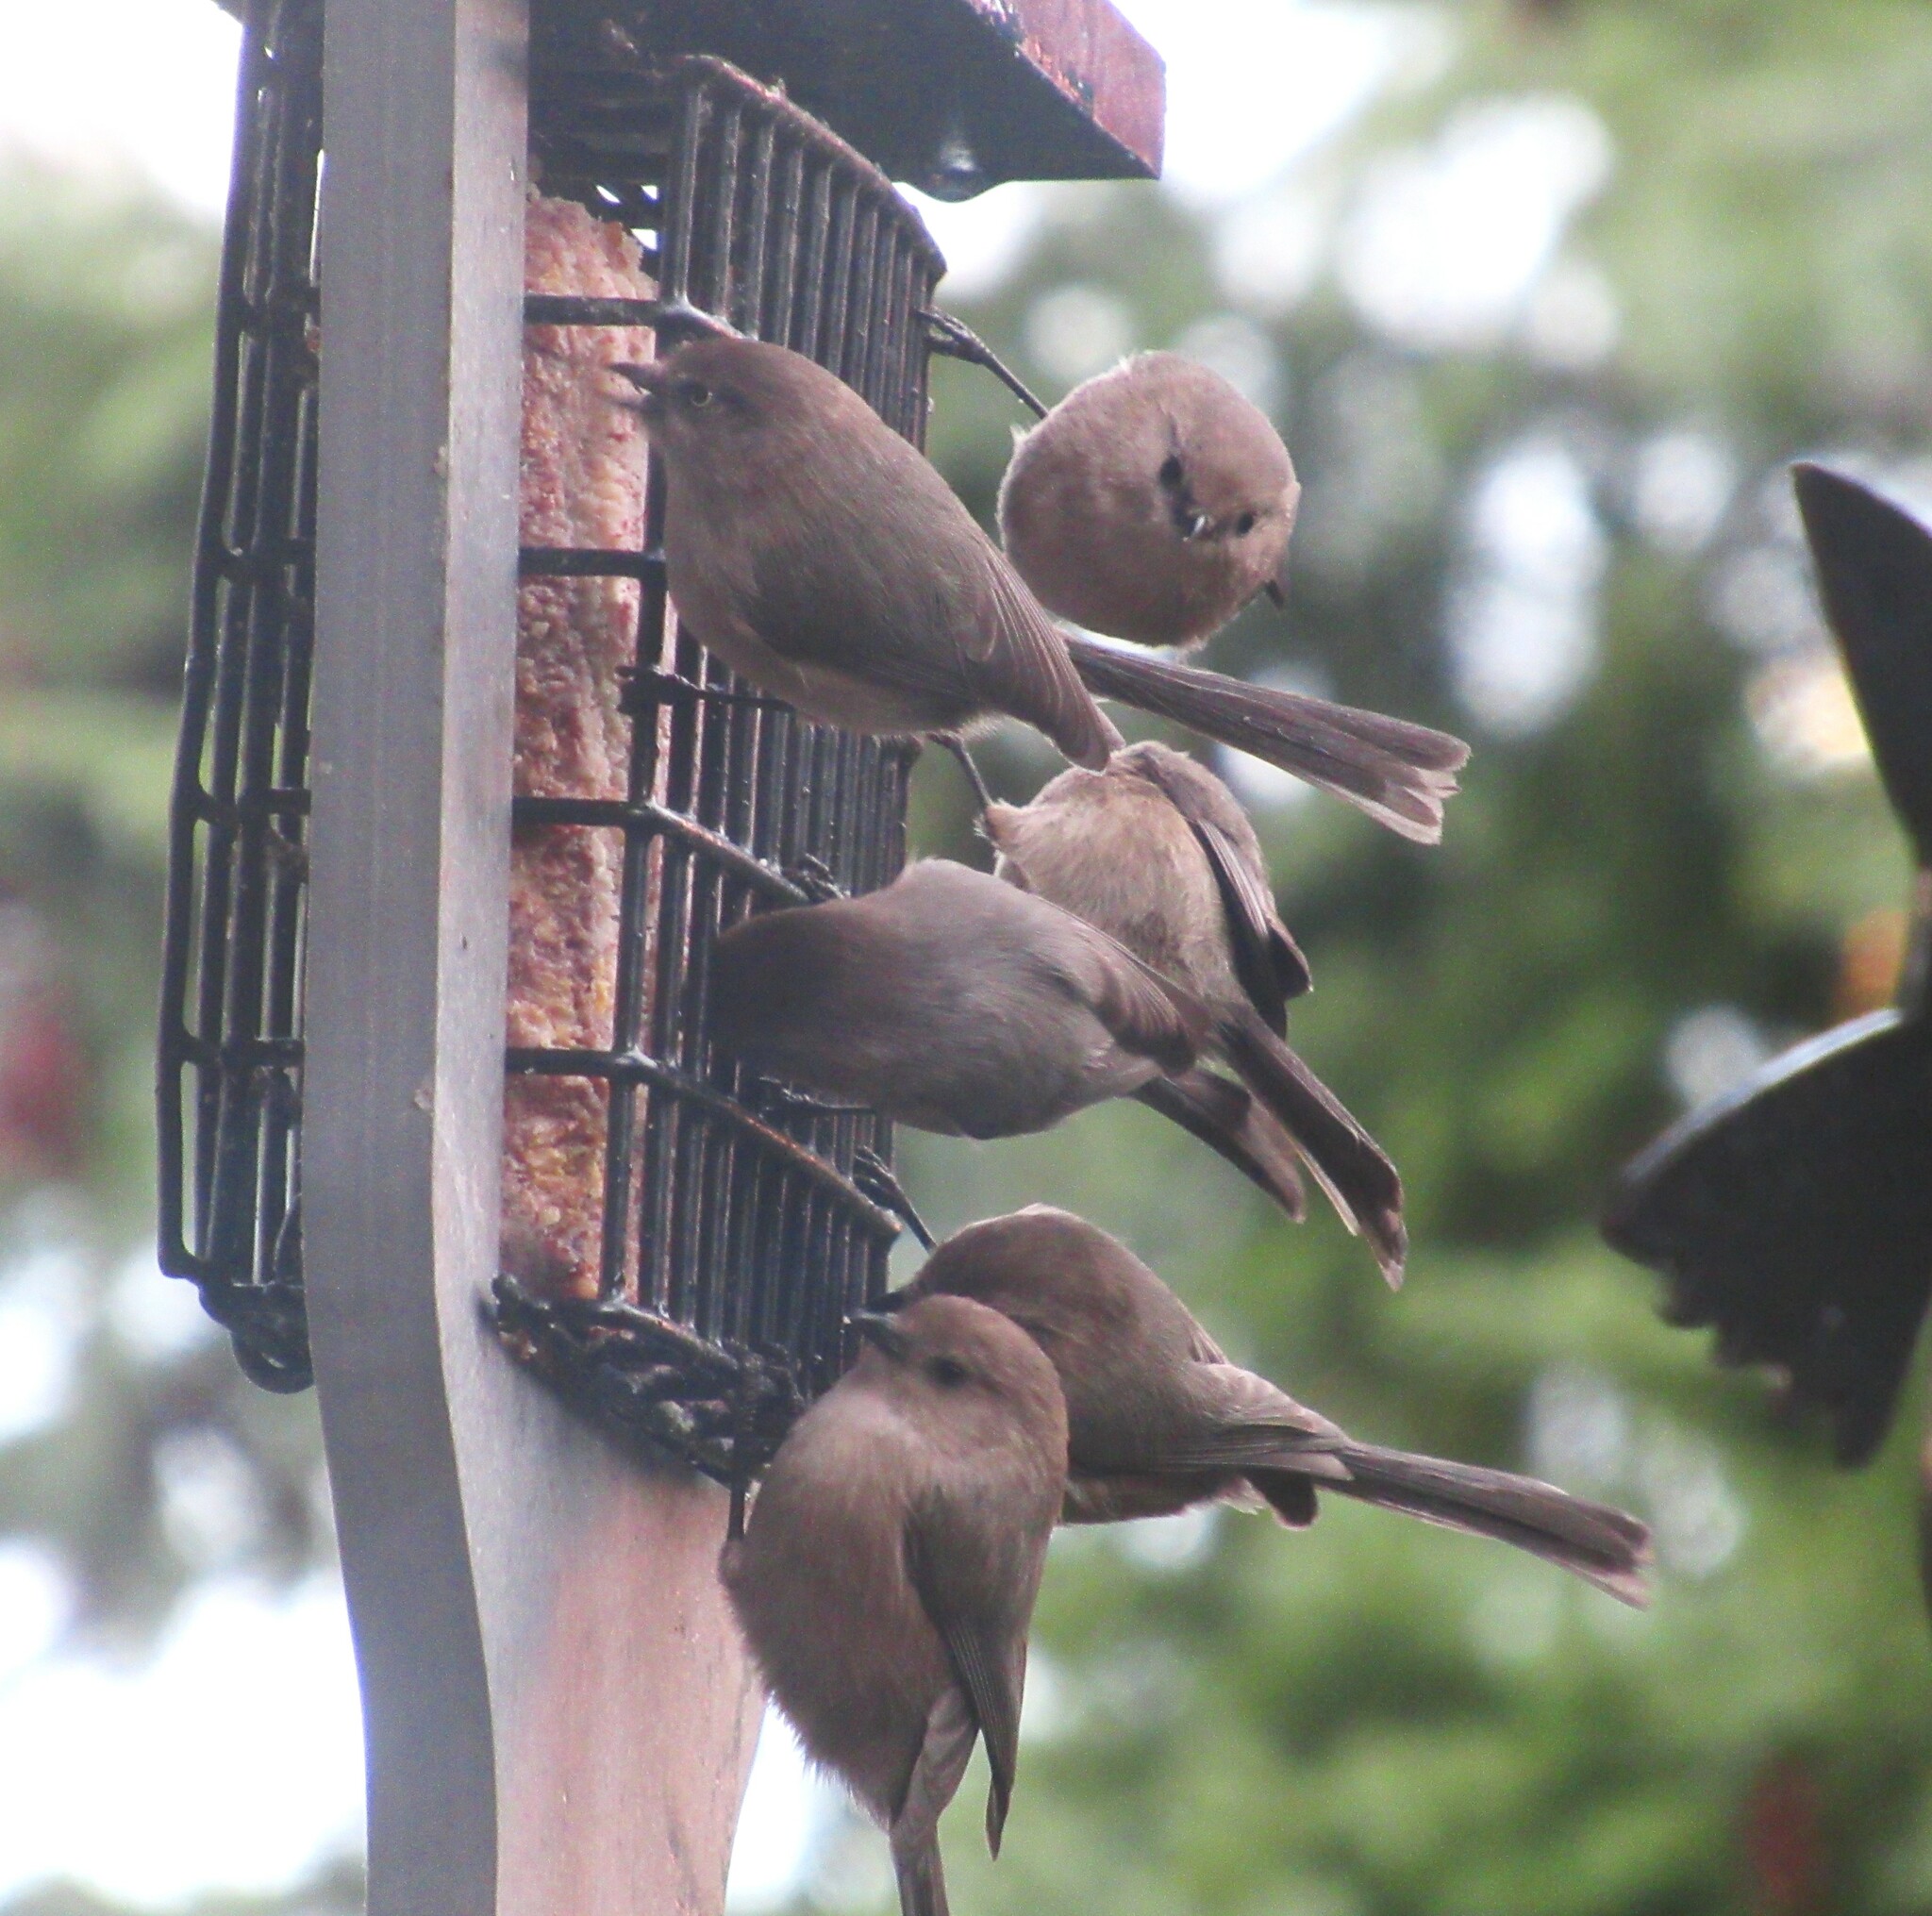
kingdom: Animalia
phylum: Chordata
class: Aves
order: Passeriformes
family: Aegithalidae
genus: Psaltriparus
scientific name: Psaltriparus minimus
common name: American bushtit
